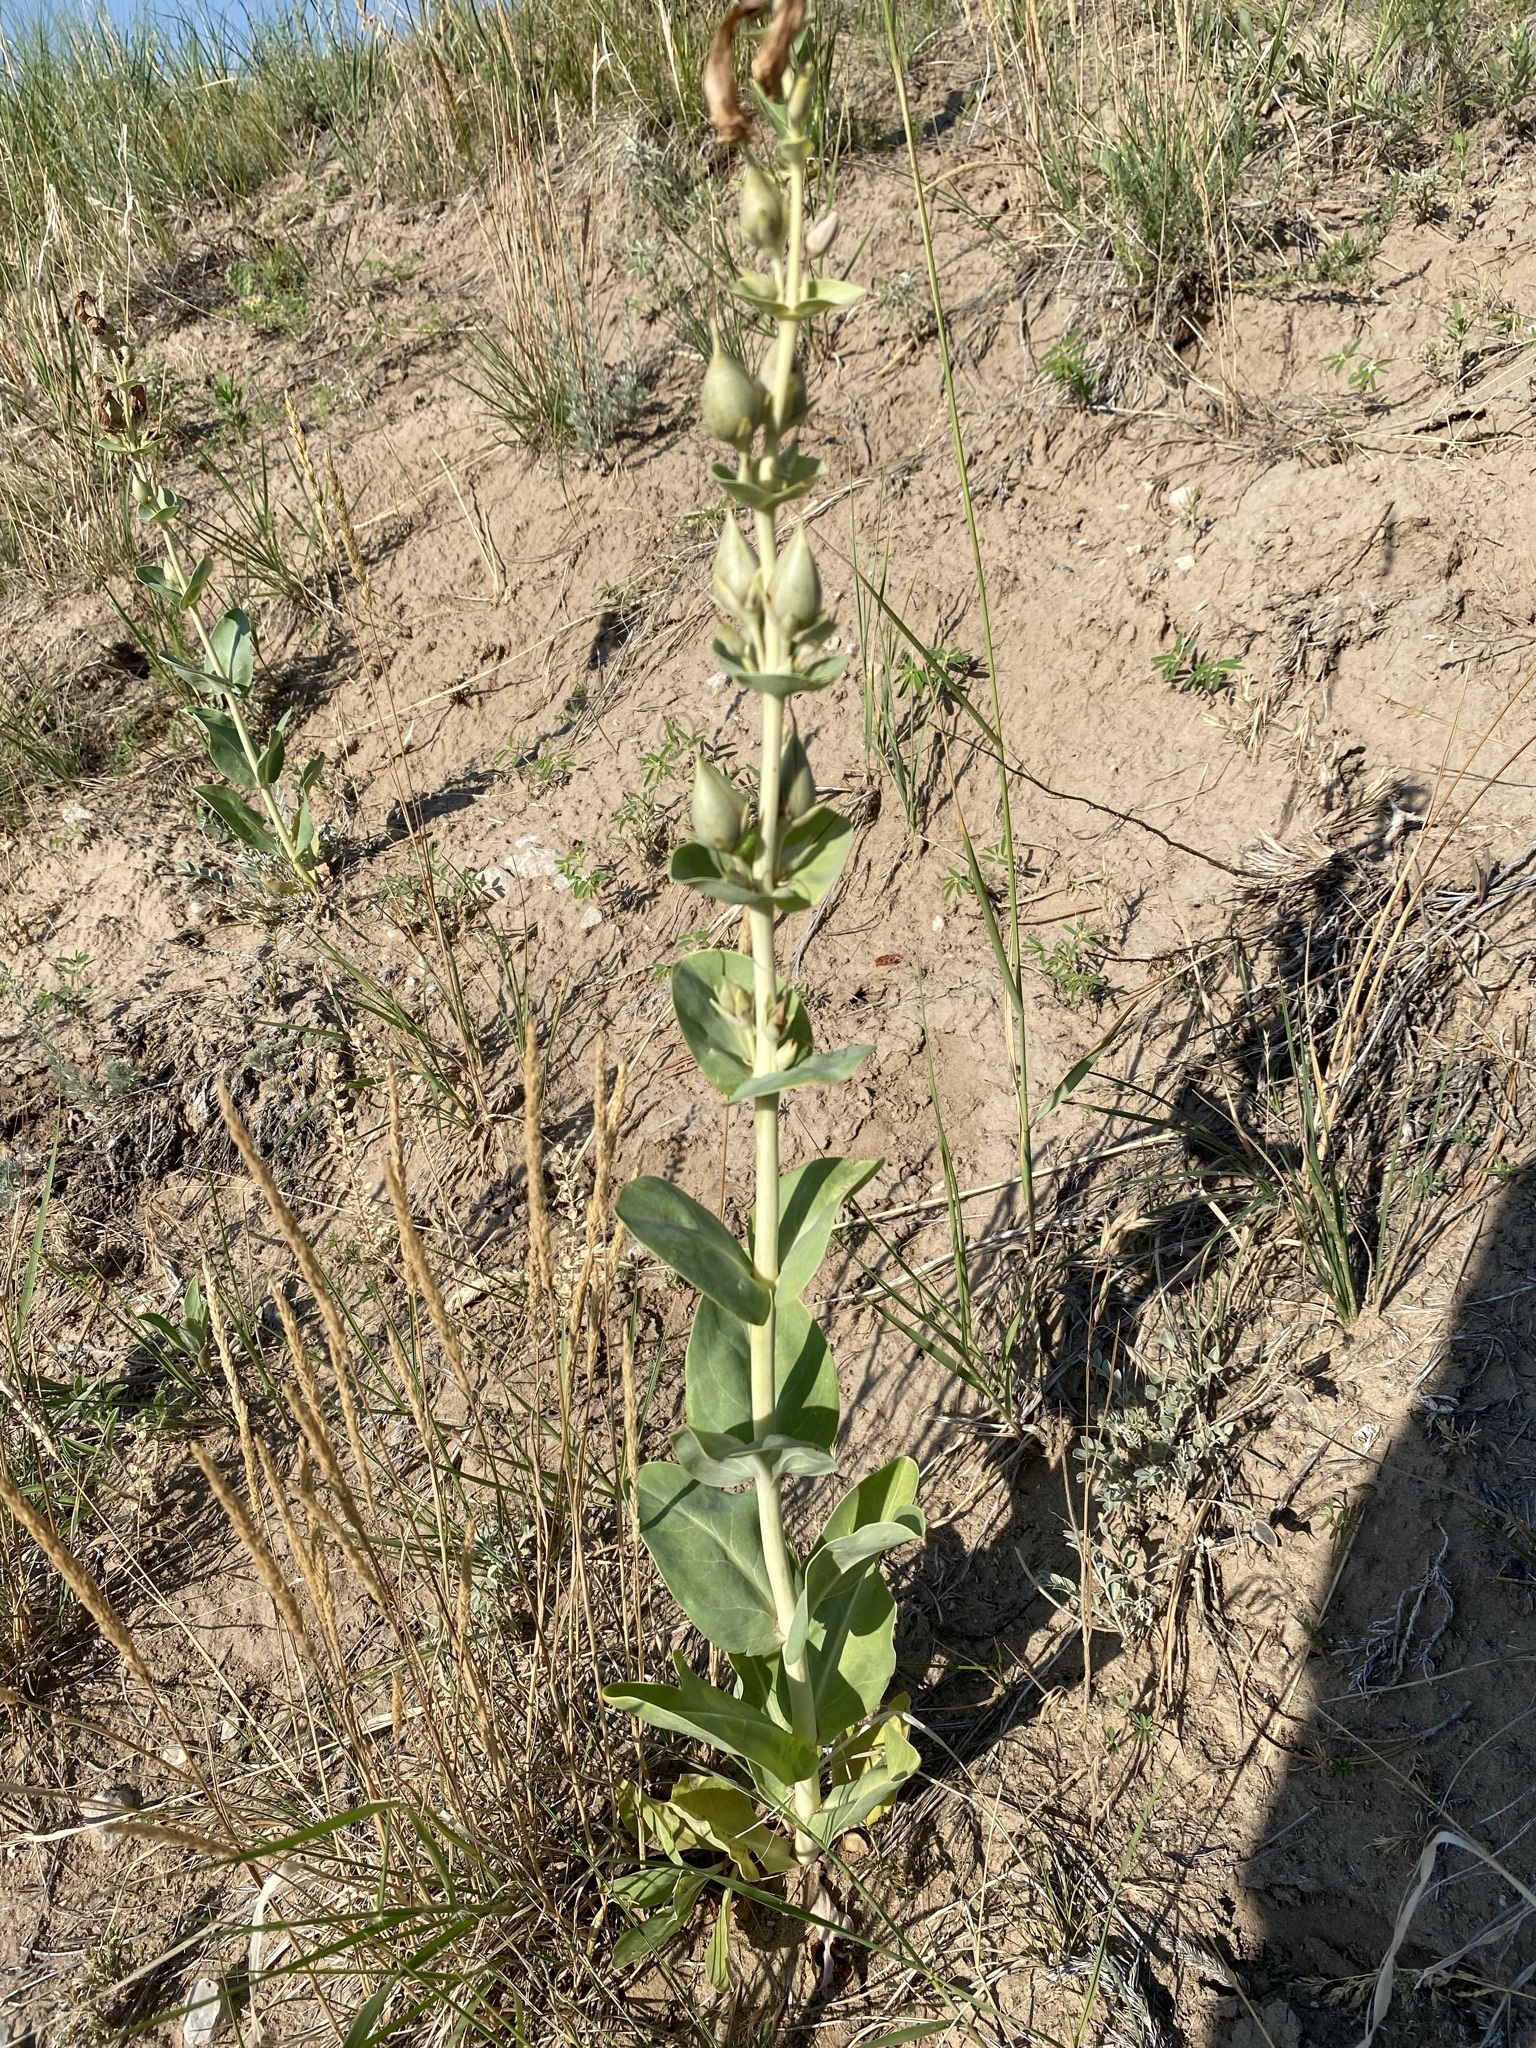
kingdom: Plantae
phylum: Tracheophyta
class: Magnoliopsida
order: Lamiales
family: Plantaginaceae
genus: Penstemon
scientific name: Penstemon
